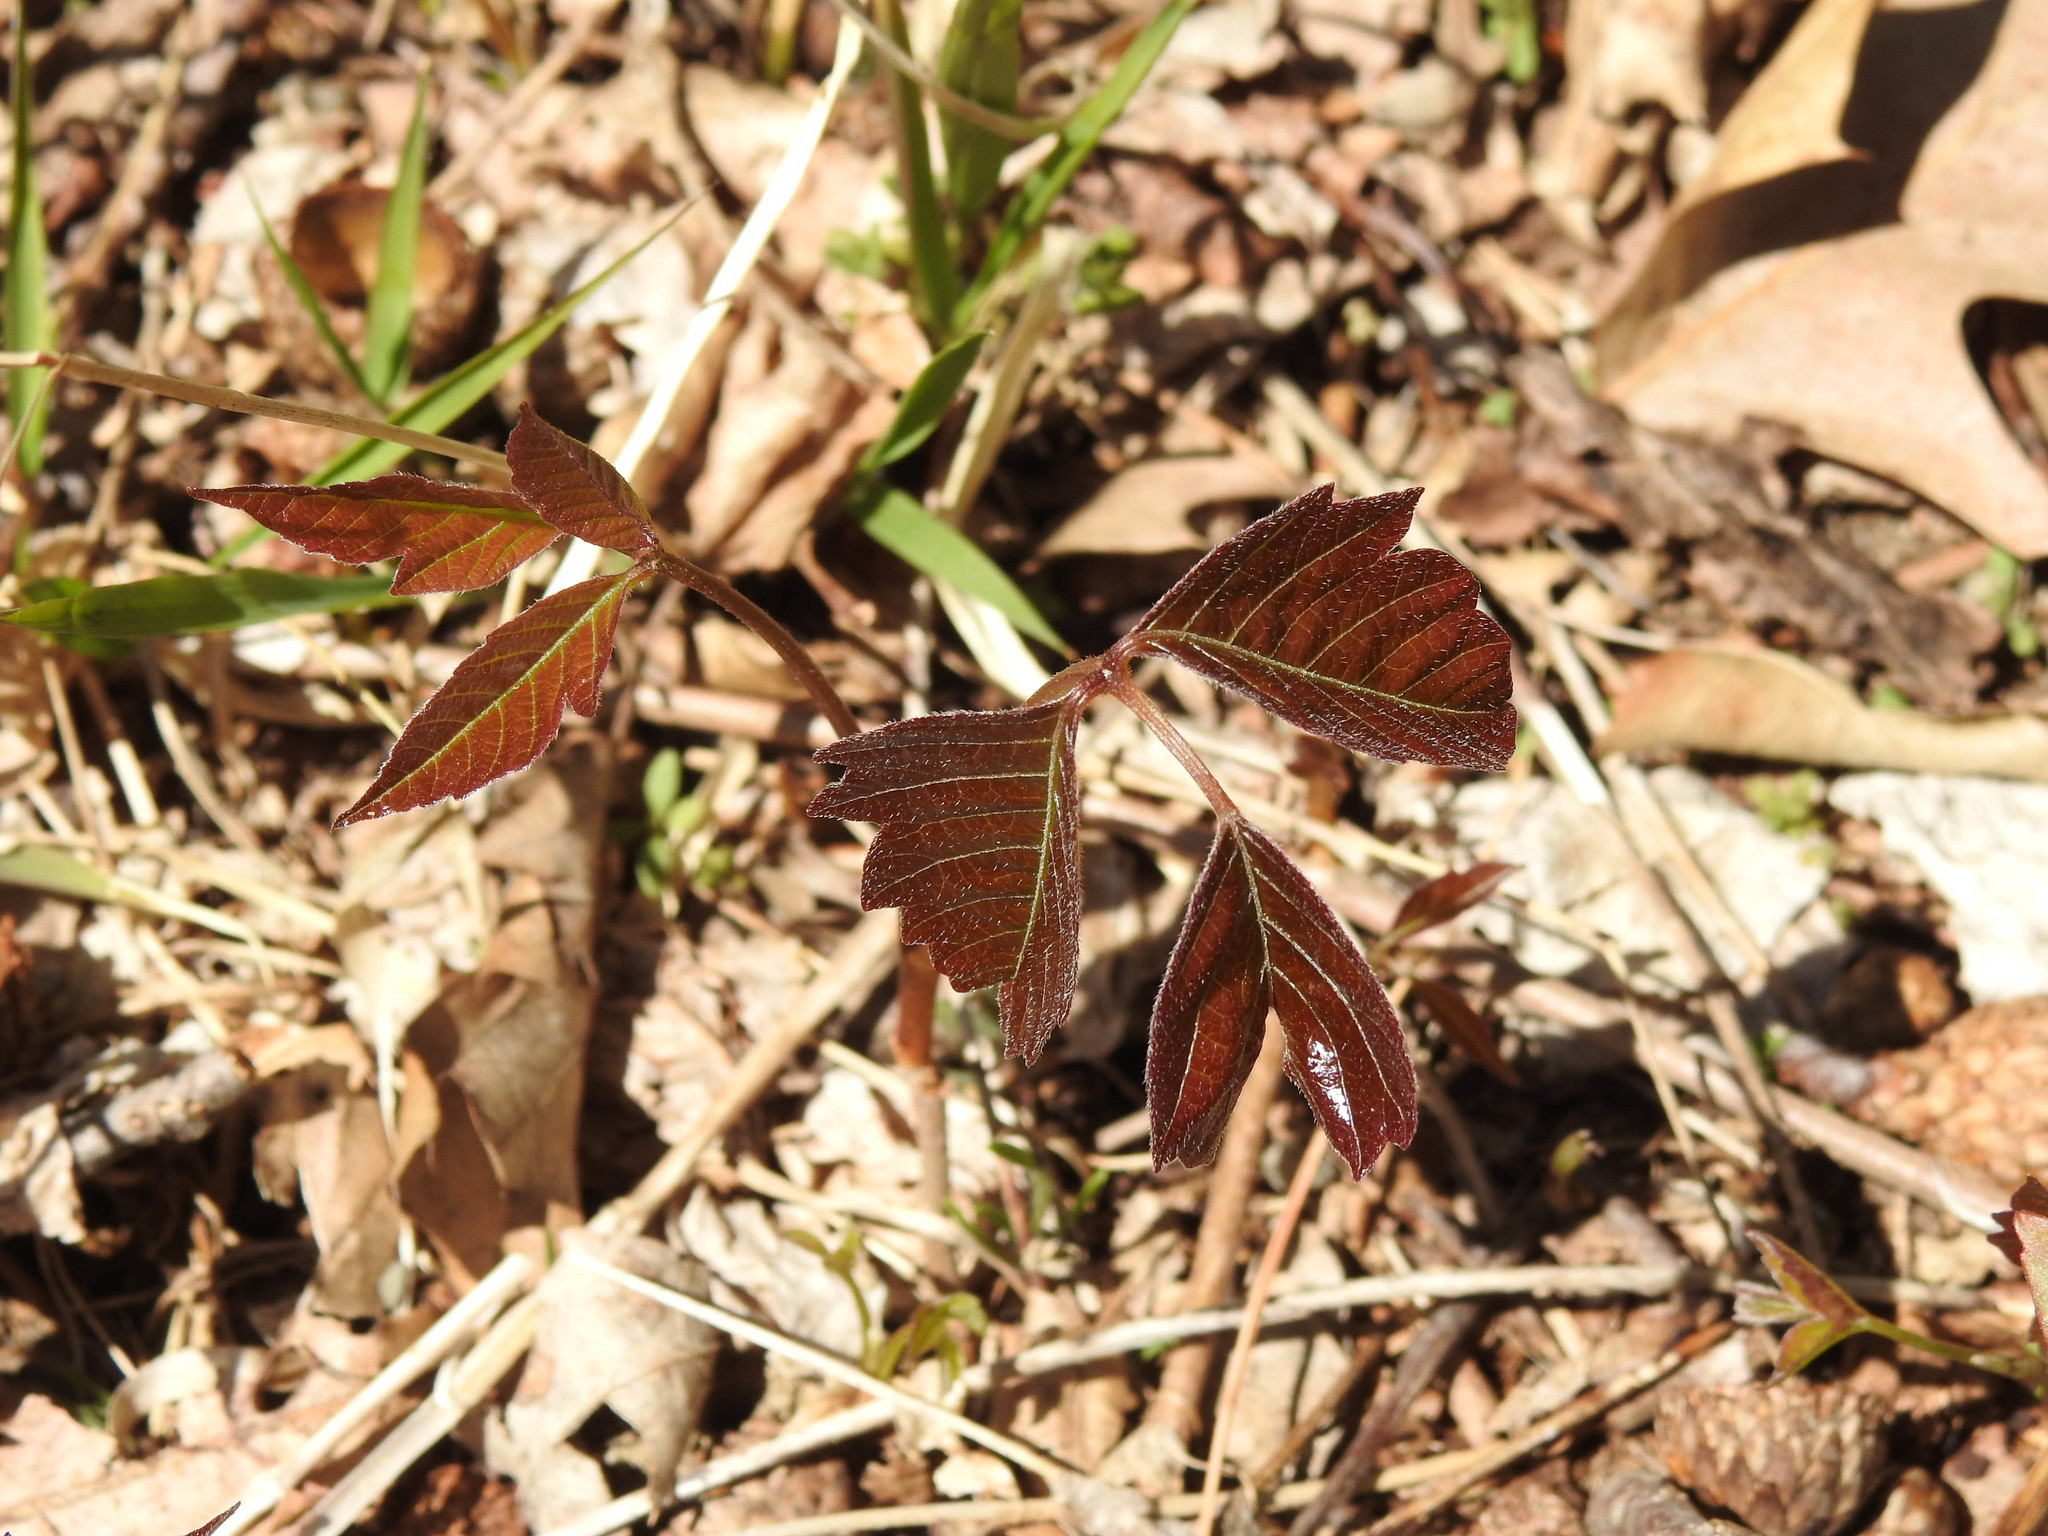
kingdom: Plantae
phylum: Tracheophyta
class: Magnoliopsida
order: Sapindales
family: Anacardiaceae
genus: Toxicodendron
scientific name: Toxicodendron radicans
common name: Poison ivy
